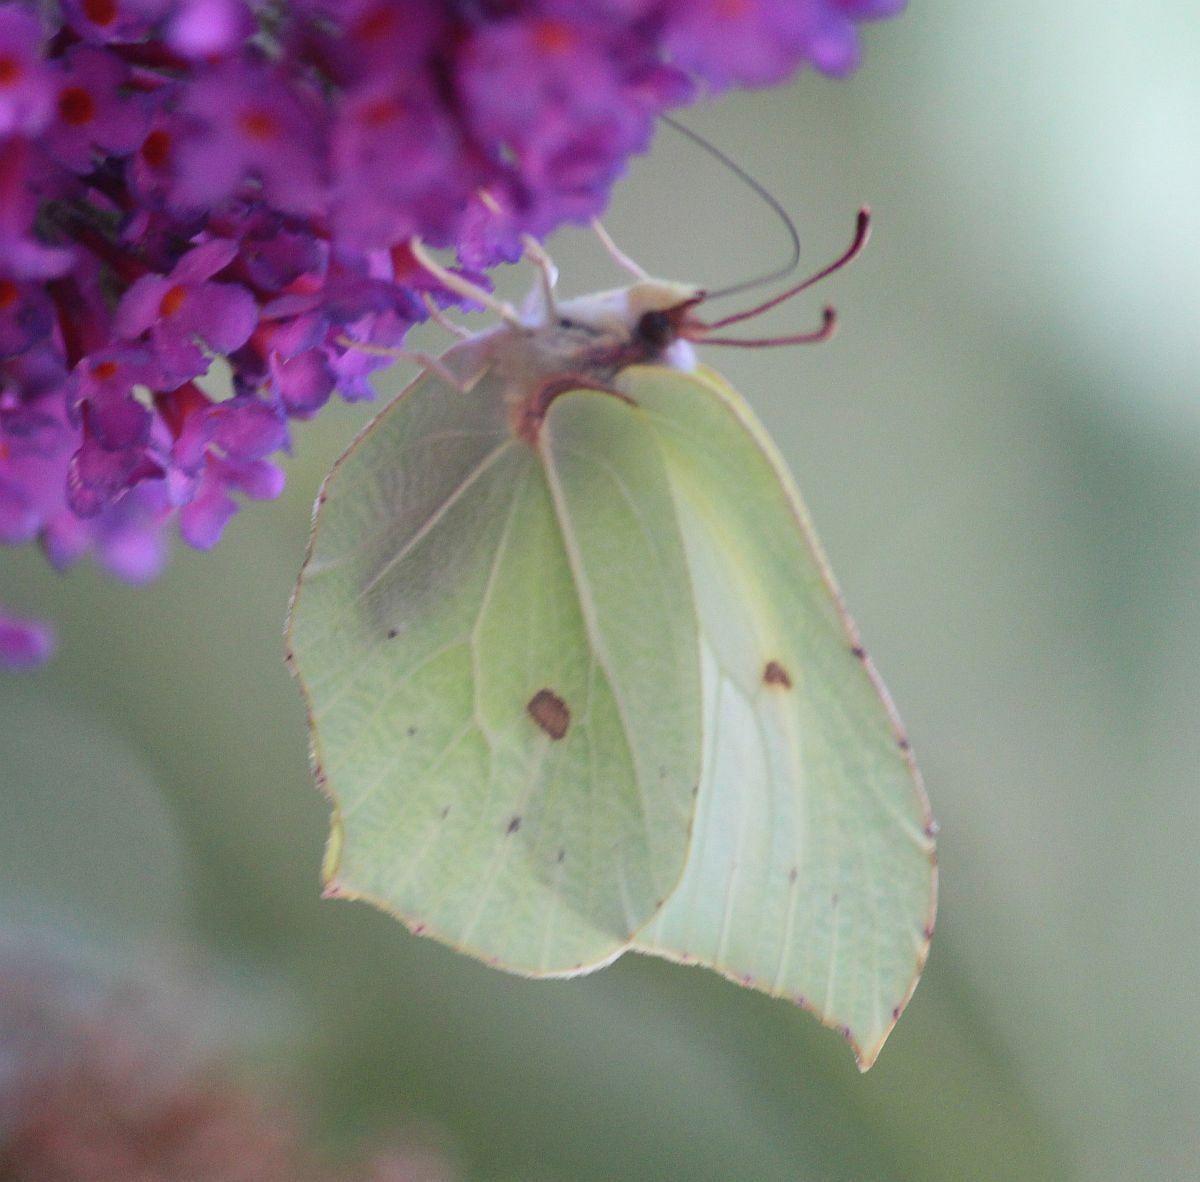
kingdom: Animalia
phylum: Arthropoda
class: Insecta
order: Lepidoptera
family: Pieridae
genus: Gonepteryx
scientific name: Gonepteryx rhamni
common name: Brimstone
